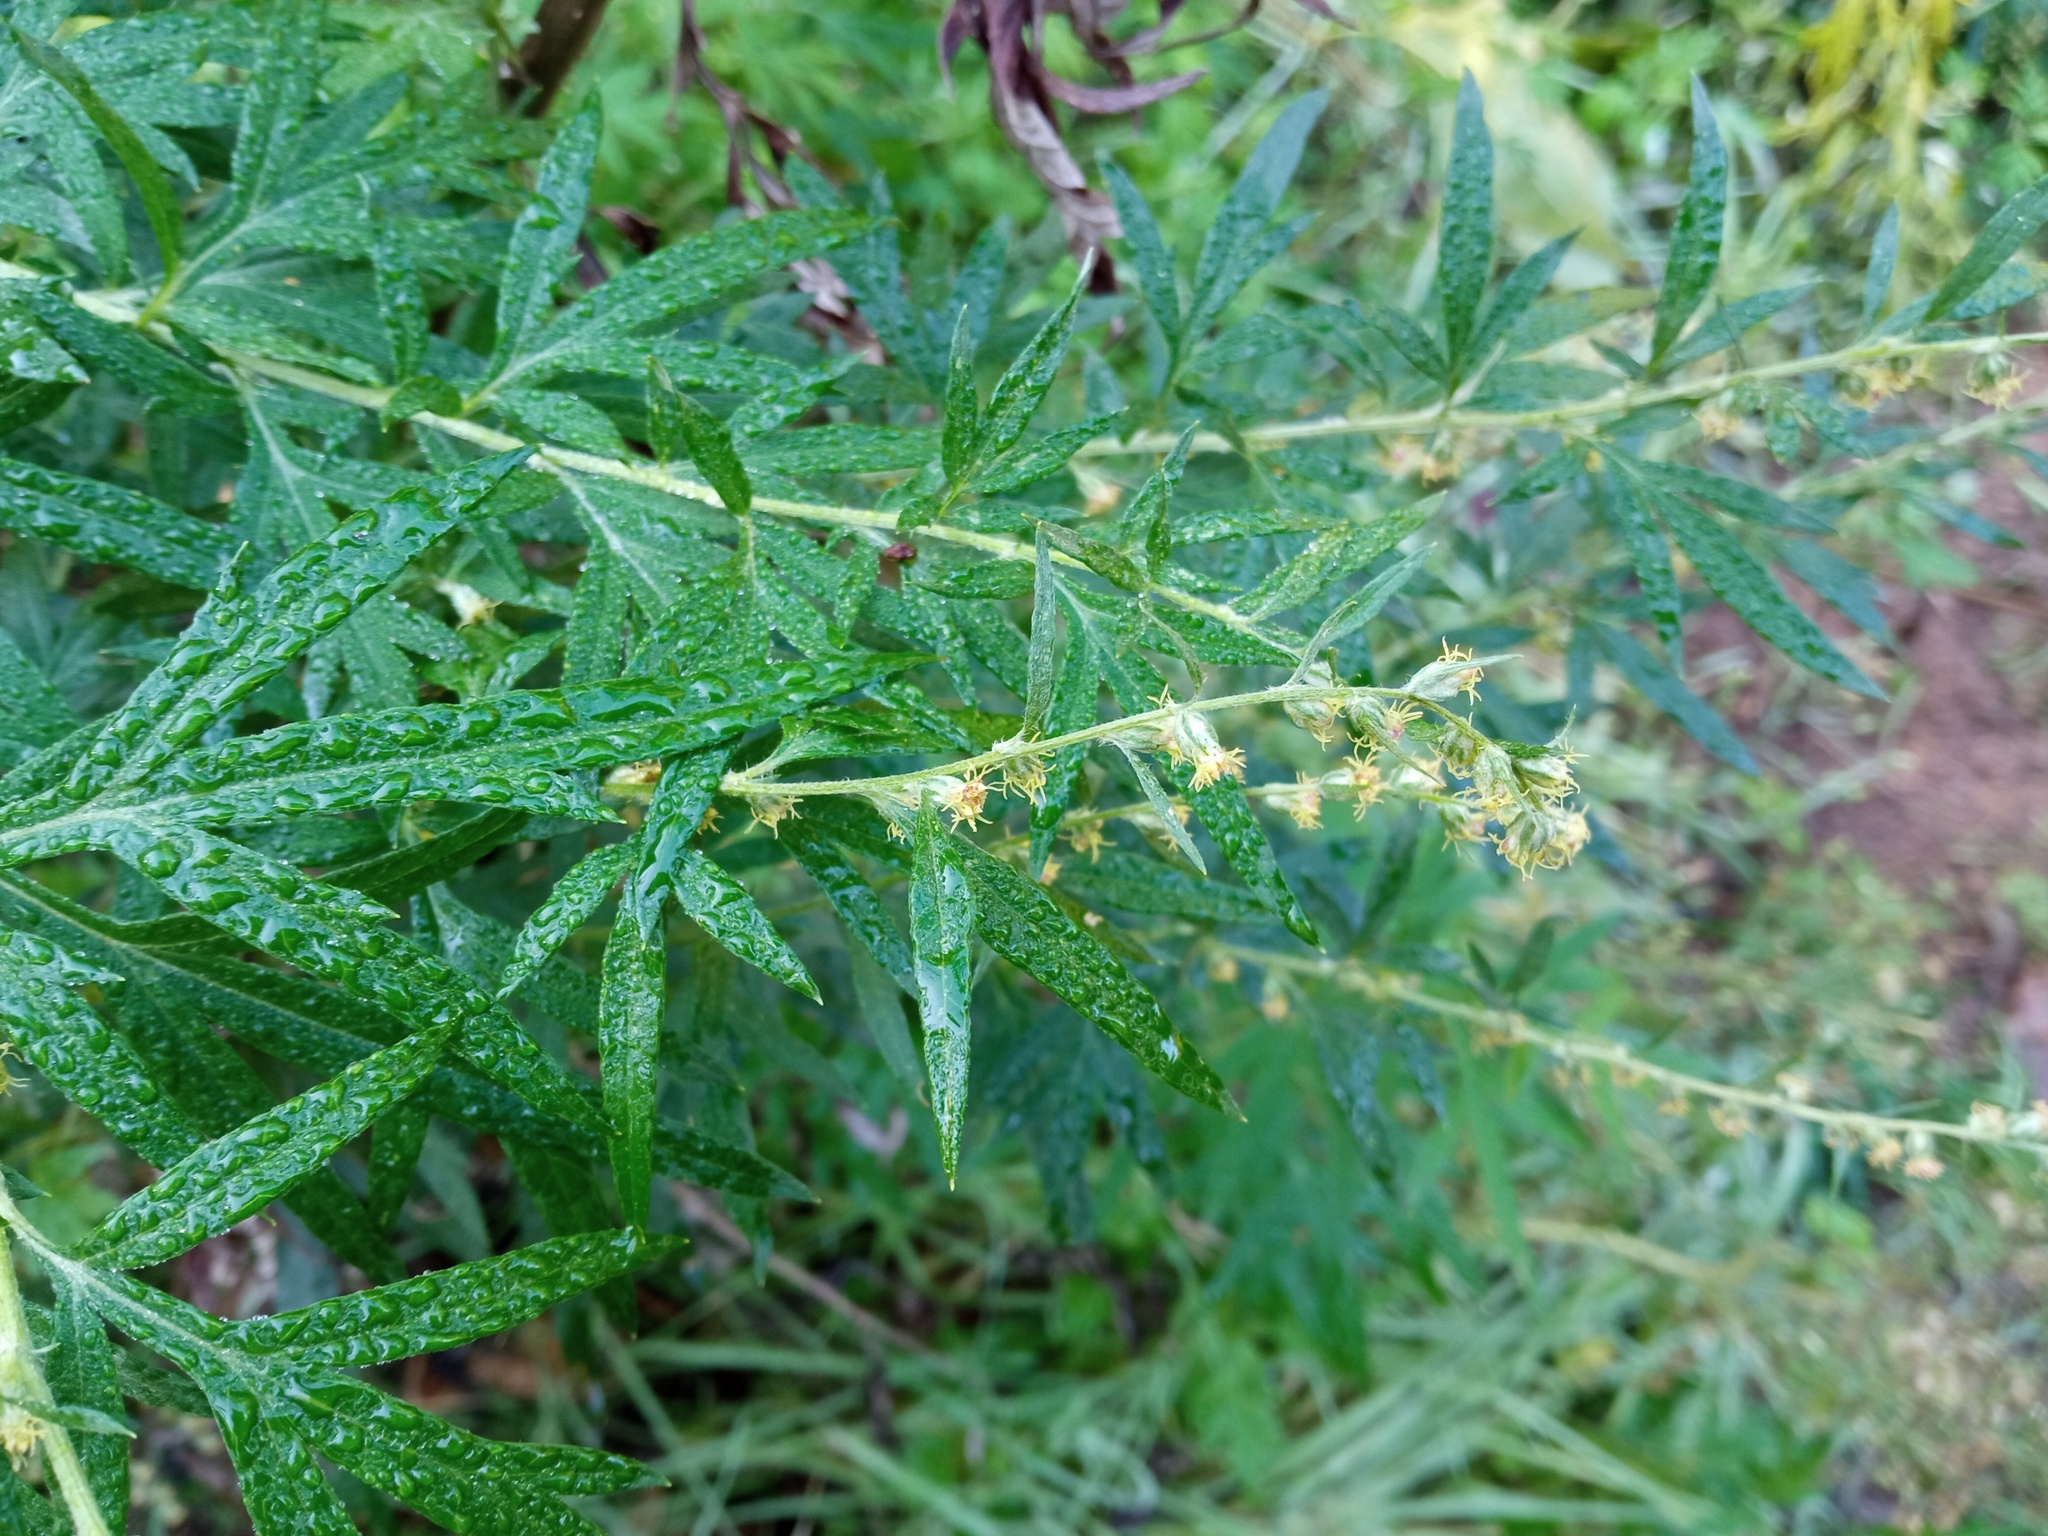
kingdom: Plantae
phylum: Tracheophyta
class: Magnoliopsida
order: Asterales
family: Asteraceae
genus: Artemisia
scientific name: Artemisia verlotiorum
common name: Chinese mugwort
